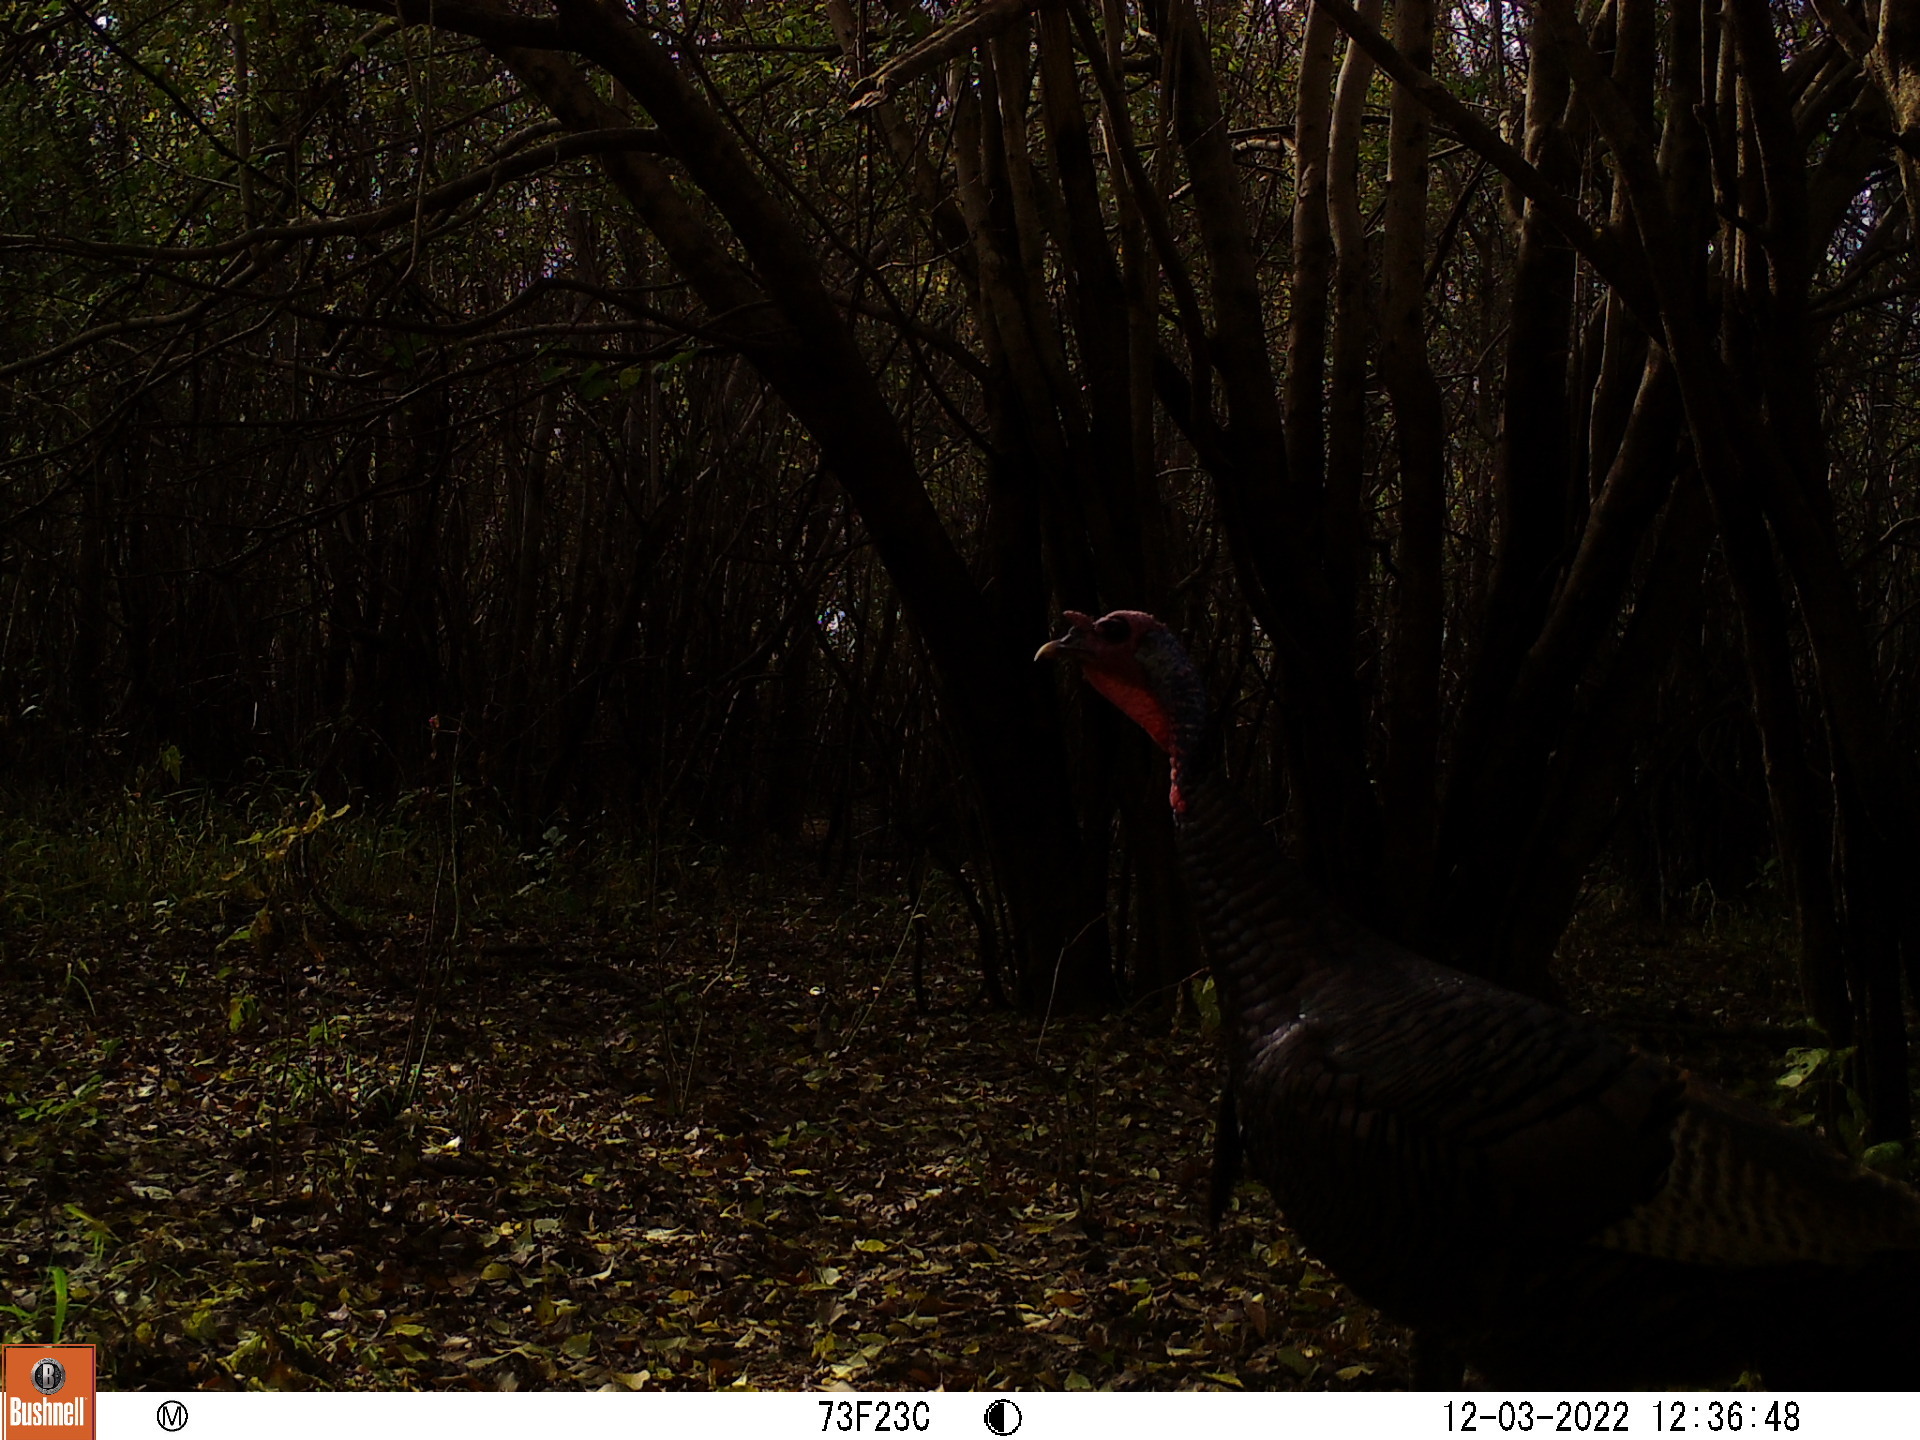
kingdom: Animalia
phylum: Chordata
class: Aves
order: Galliformes
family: Phasianidae
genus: Meleagris
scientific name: Meleagris gallopavo
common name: Wild turkey
